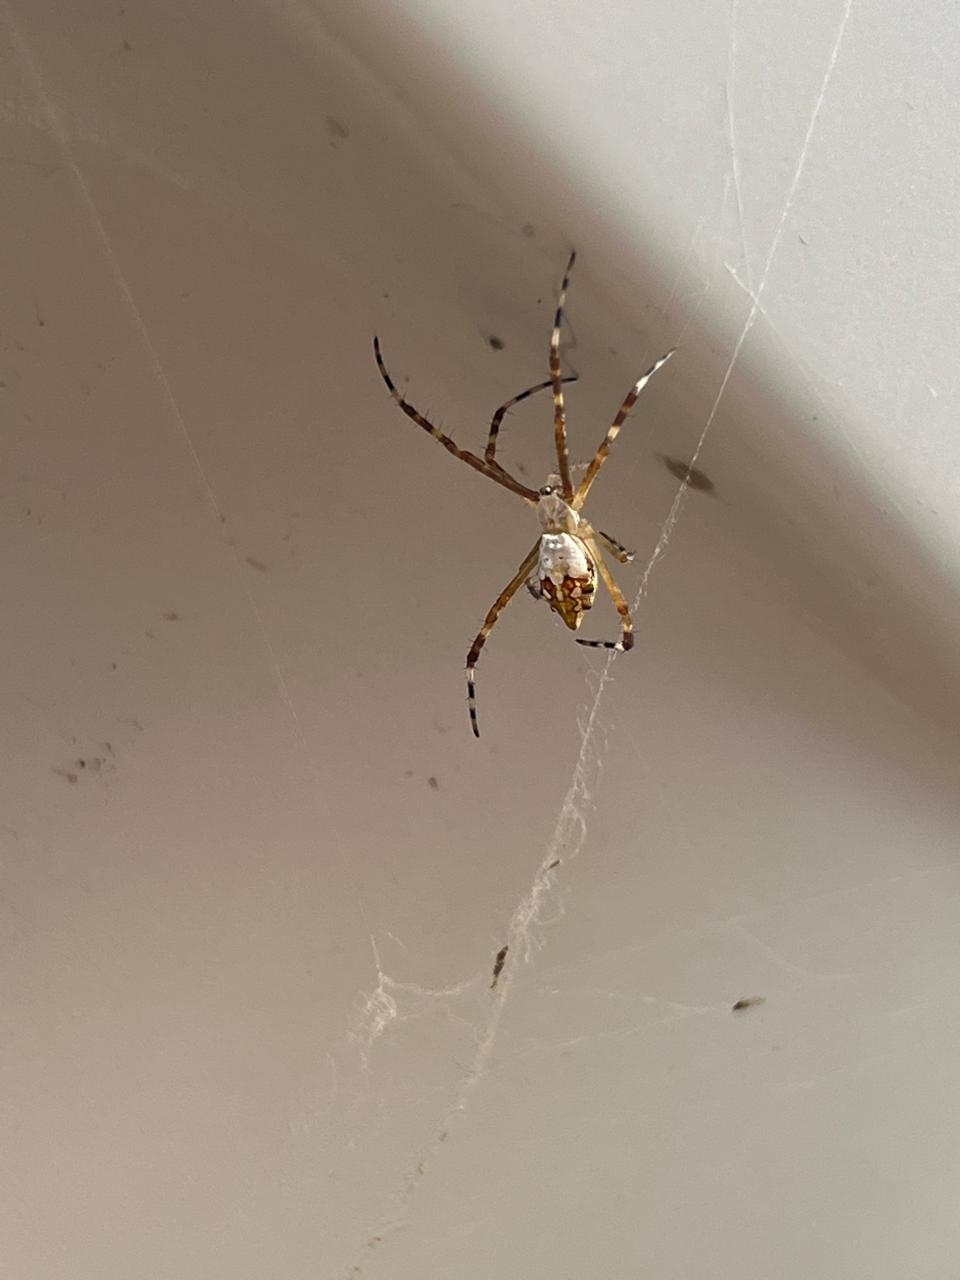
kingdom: Animalia
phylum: Arthropoda
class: Arachnida
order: Araneae
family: Araneidae
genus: Argiope
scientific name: Argiope argentata
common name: Orb weavers
